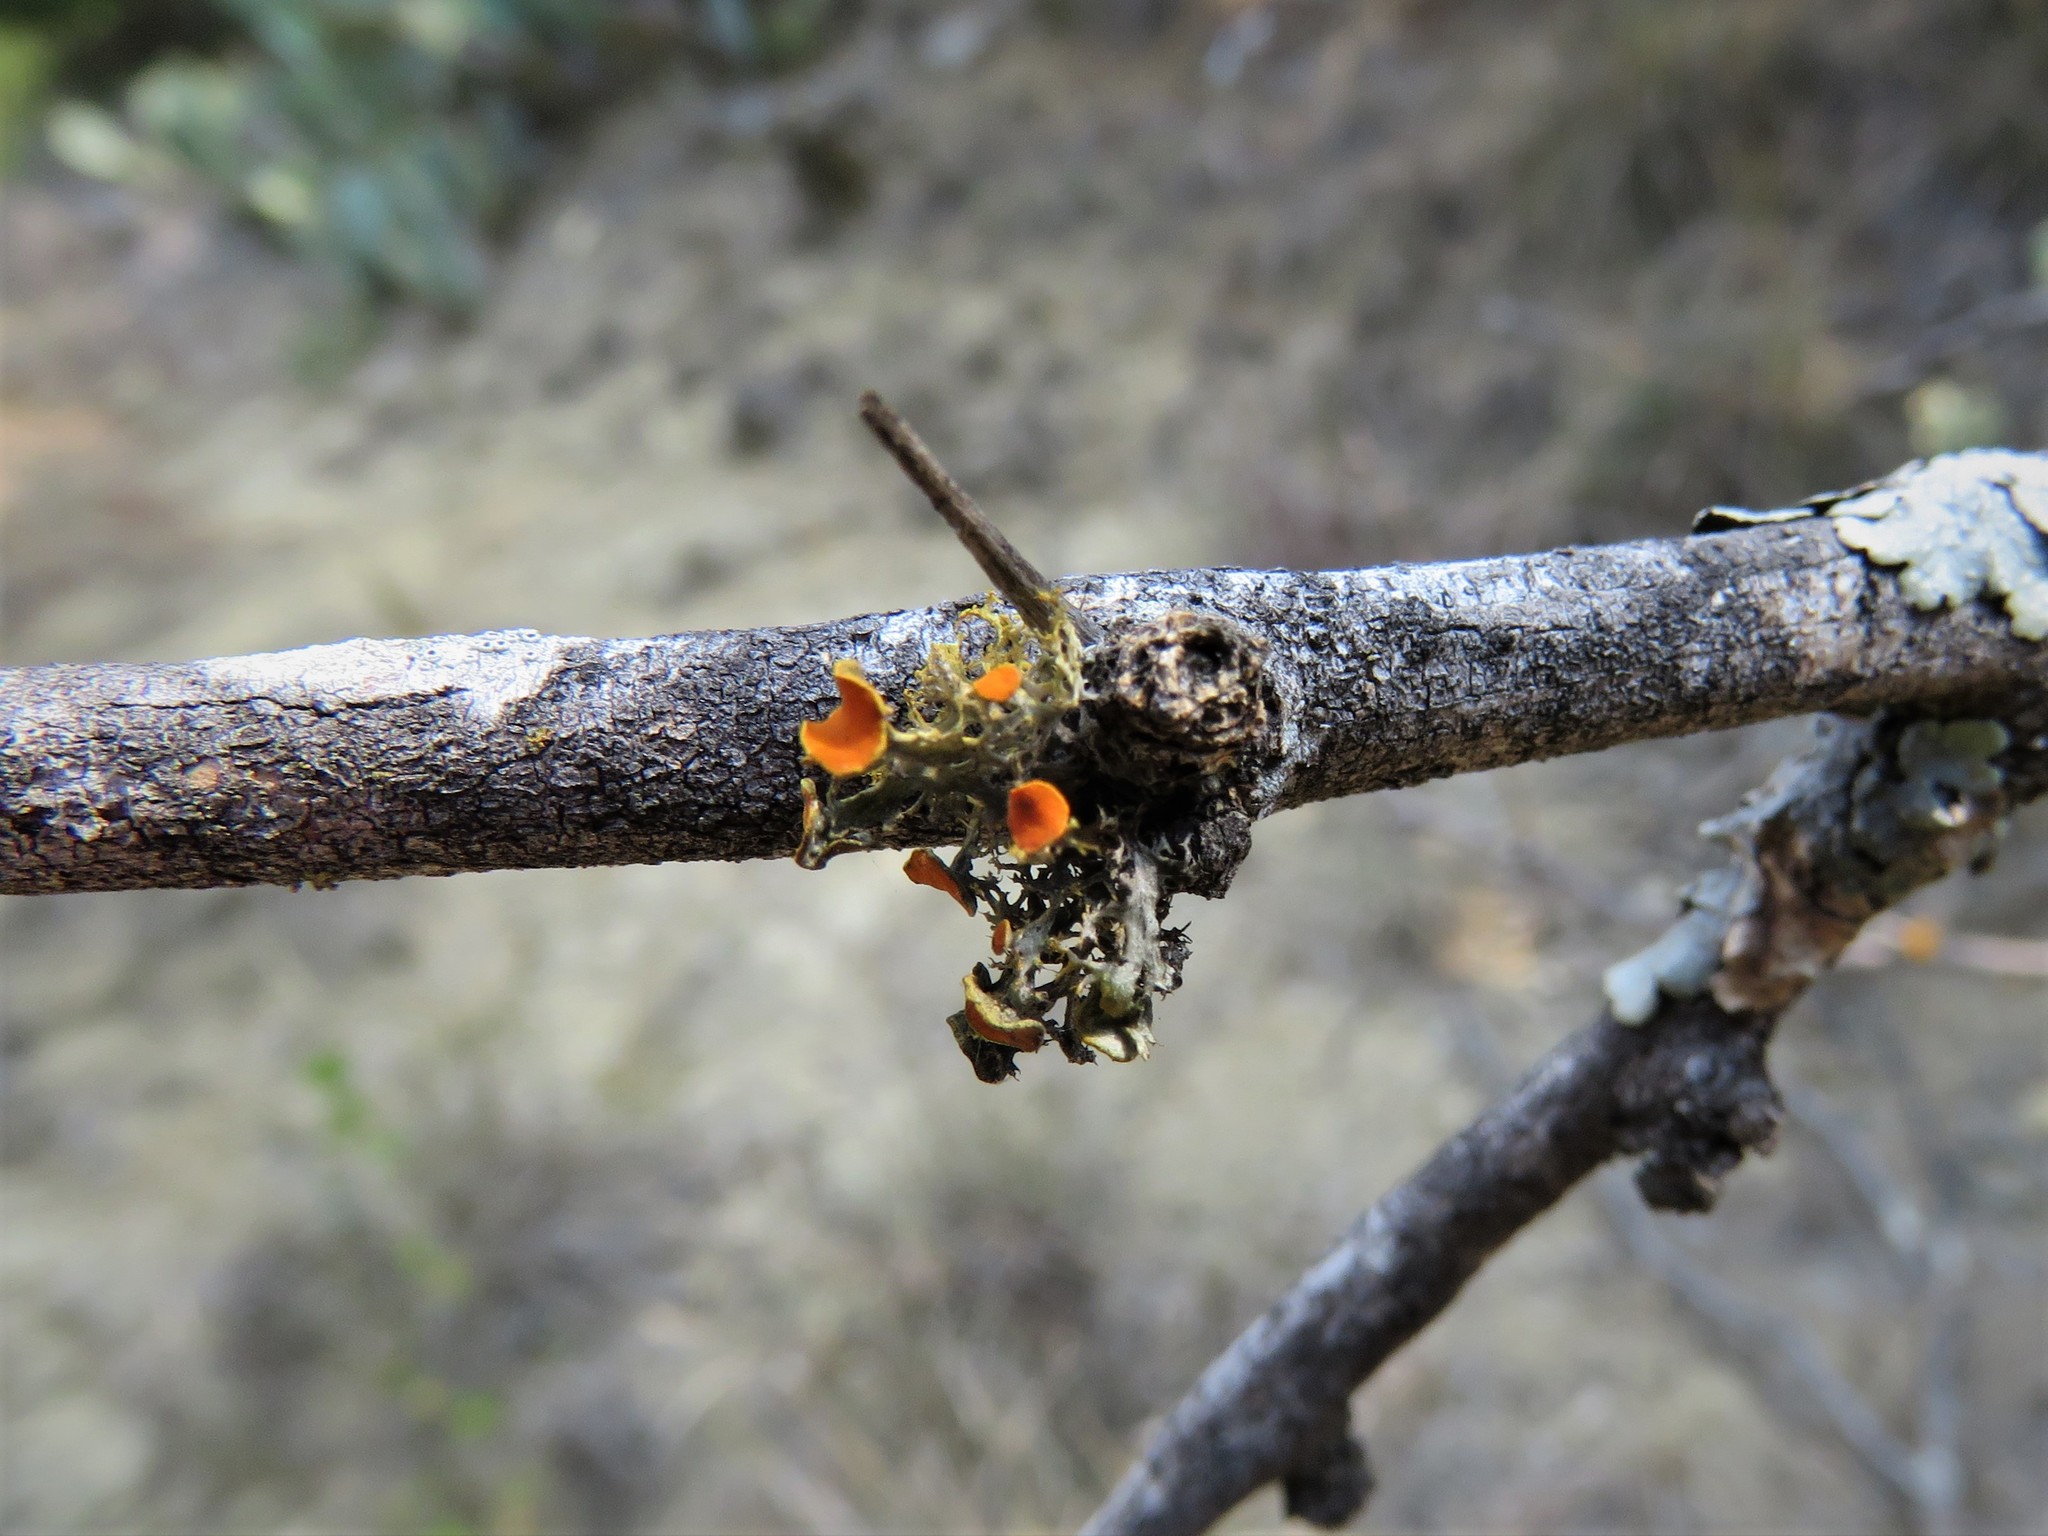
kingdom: Fungi
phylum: Ascomycota
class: Lecanoromycetes
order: Teloschistales
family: Teloschistaceae
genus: Teloschistes
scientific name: Teloschistes exilis
